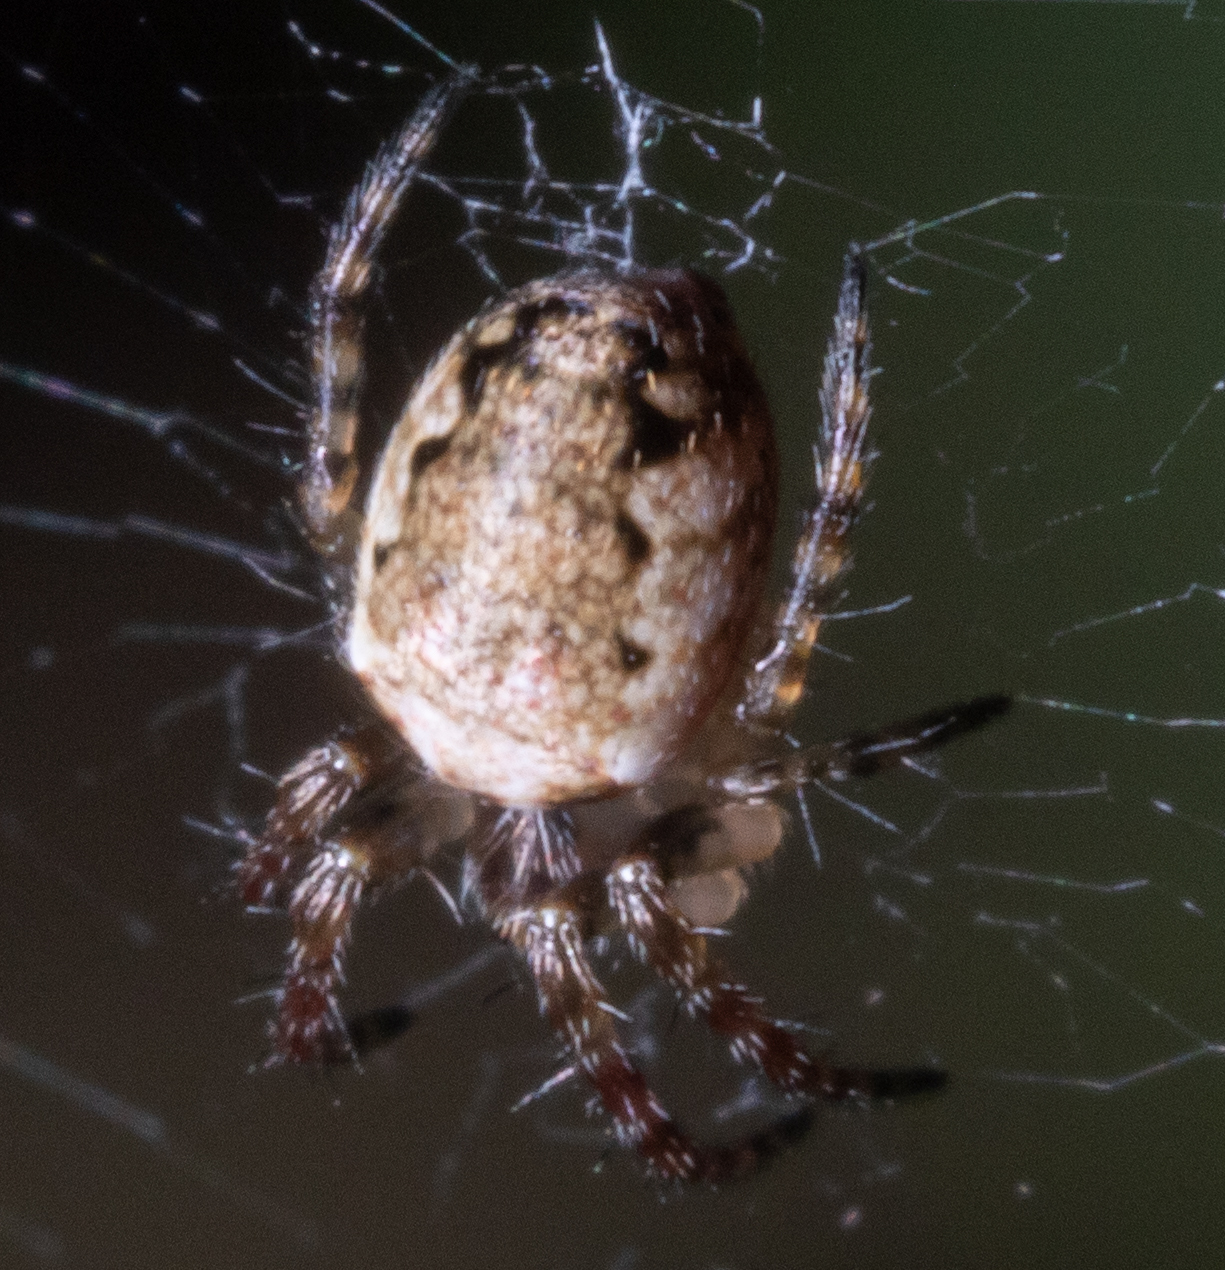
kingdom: Animalia
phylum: Arthropoda
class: Arachnida
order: Araneae
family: Araneidae
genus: Plebs
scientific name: Plebs eburnus
